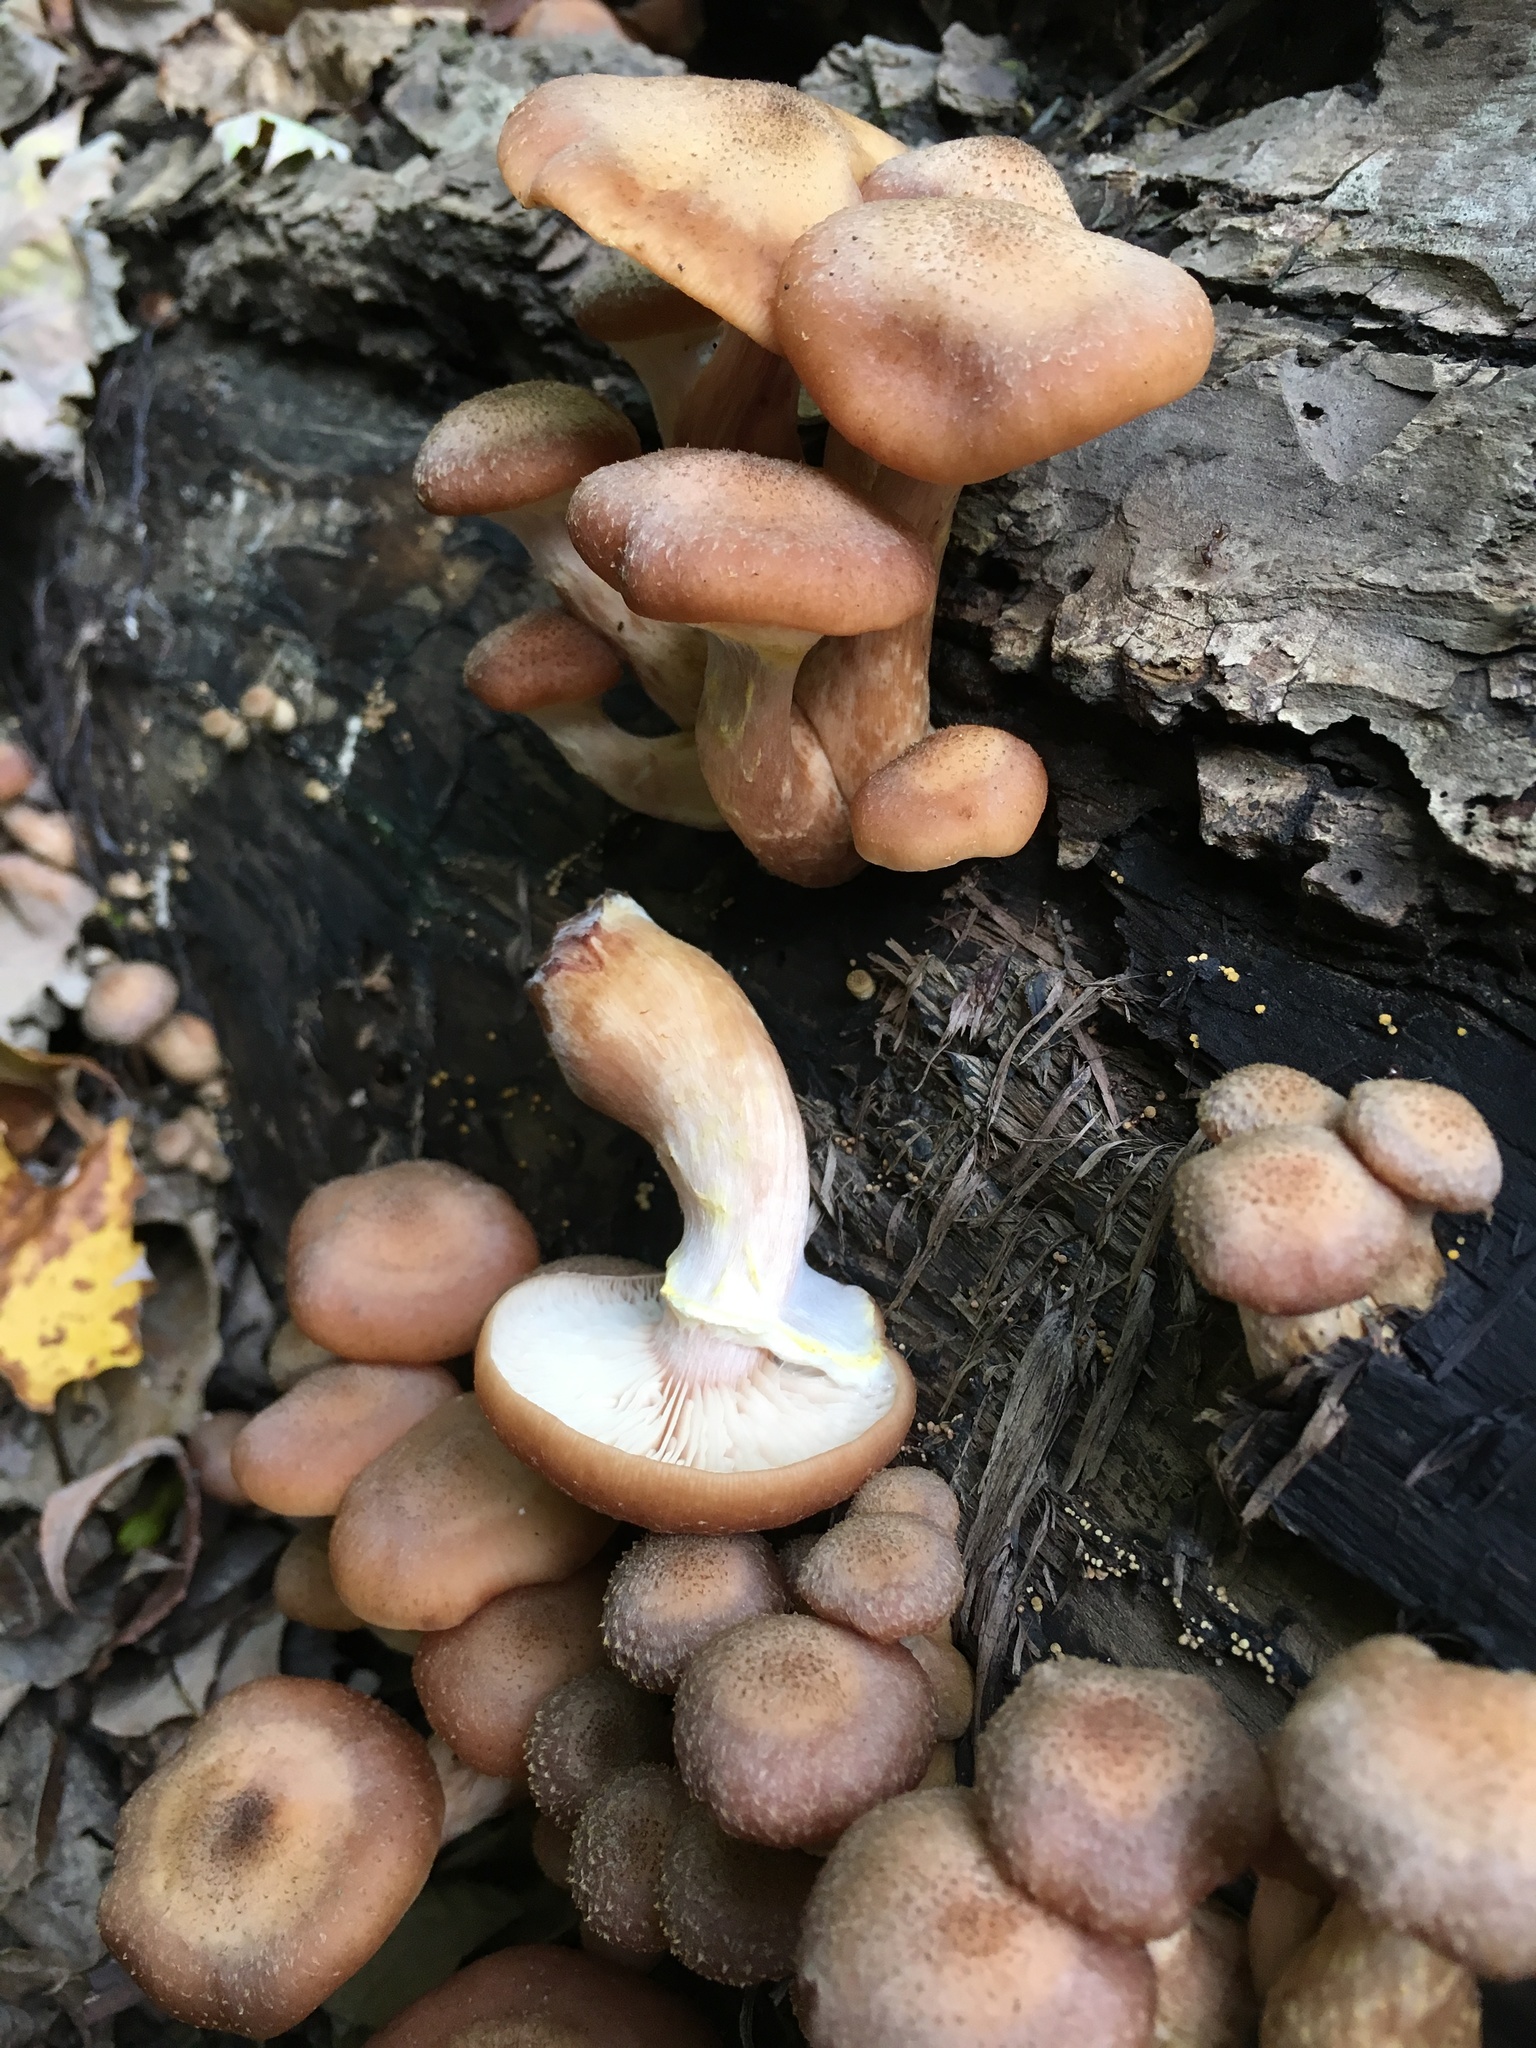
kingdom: Fungi
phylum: Basidiomycota
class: Agaricomycetes
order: Agaricales
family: Physalacriaceae
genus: Armillaria
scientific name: Armillaria gallica
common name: Bulbous honey fungus
